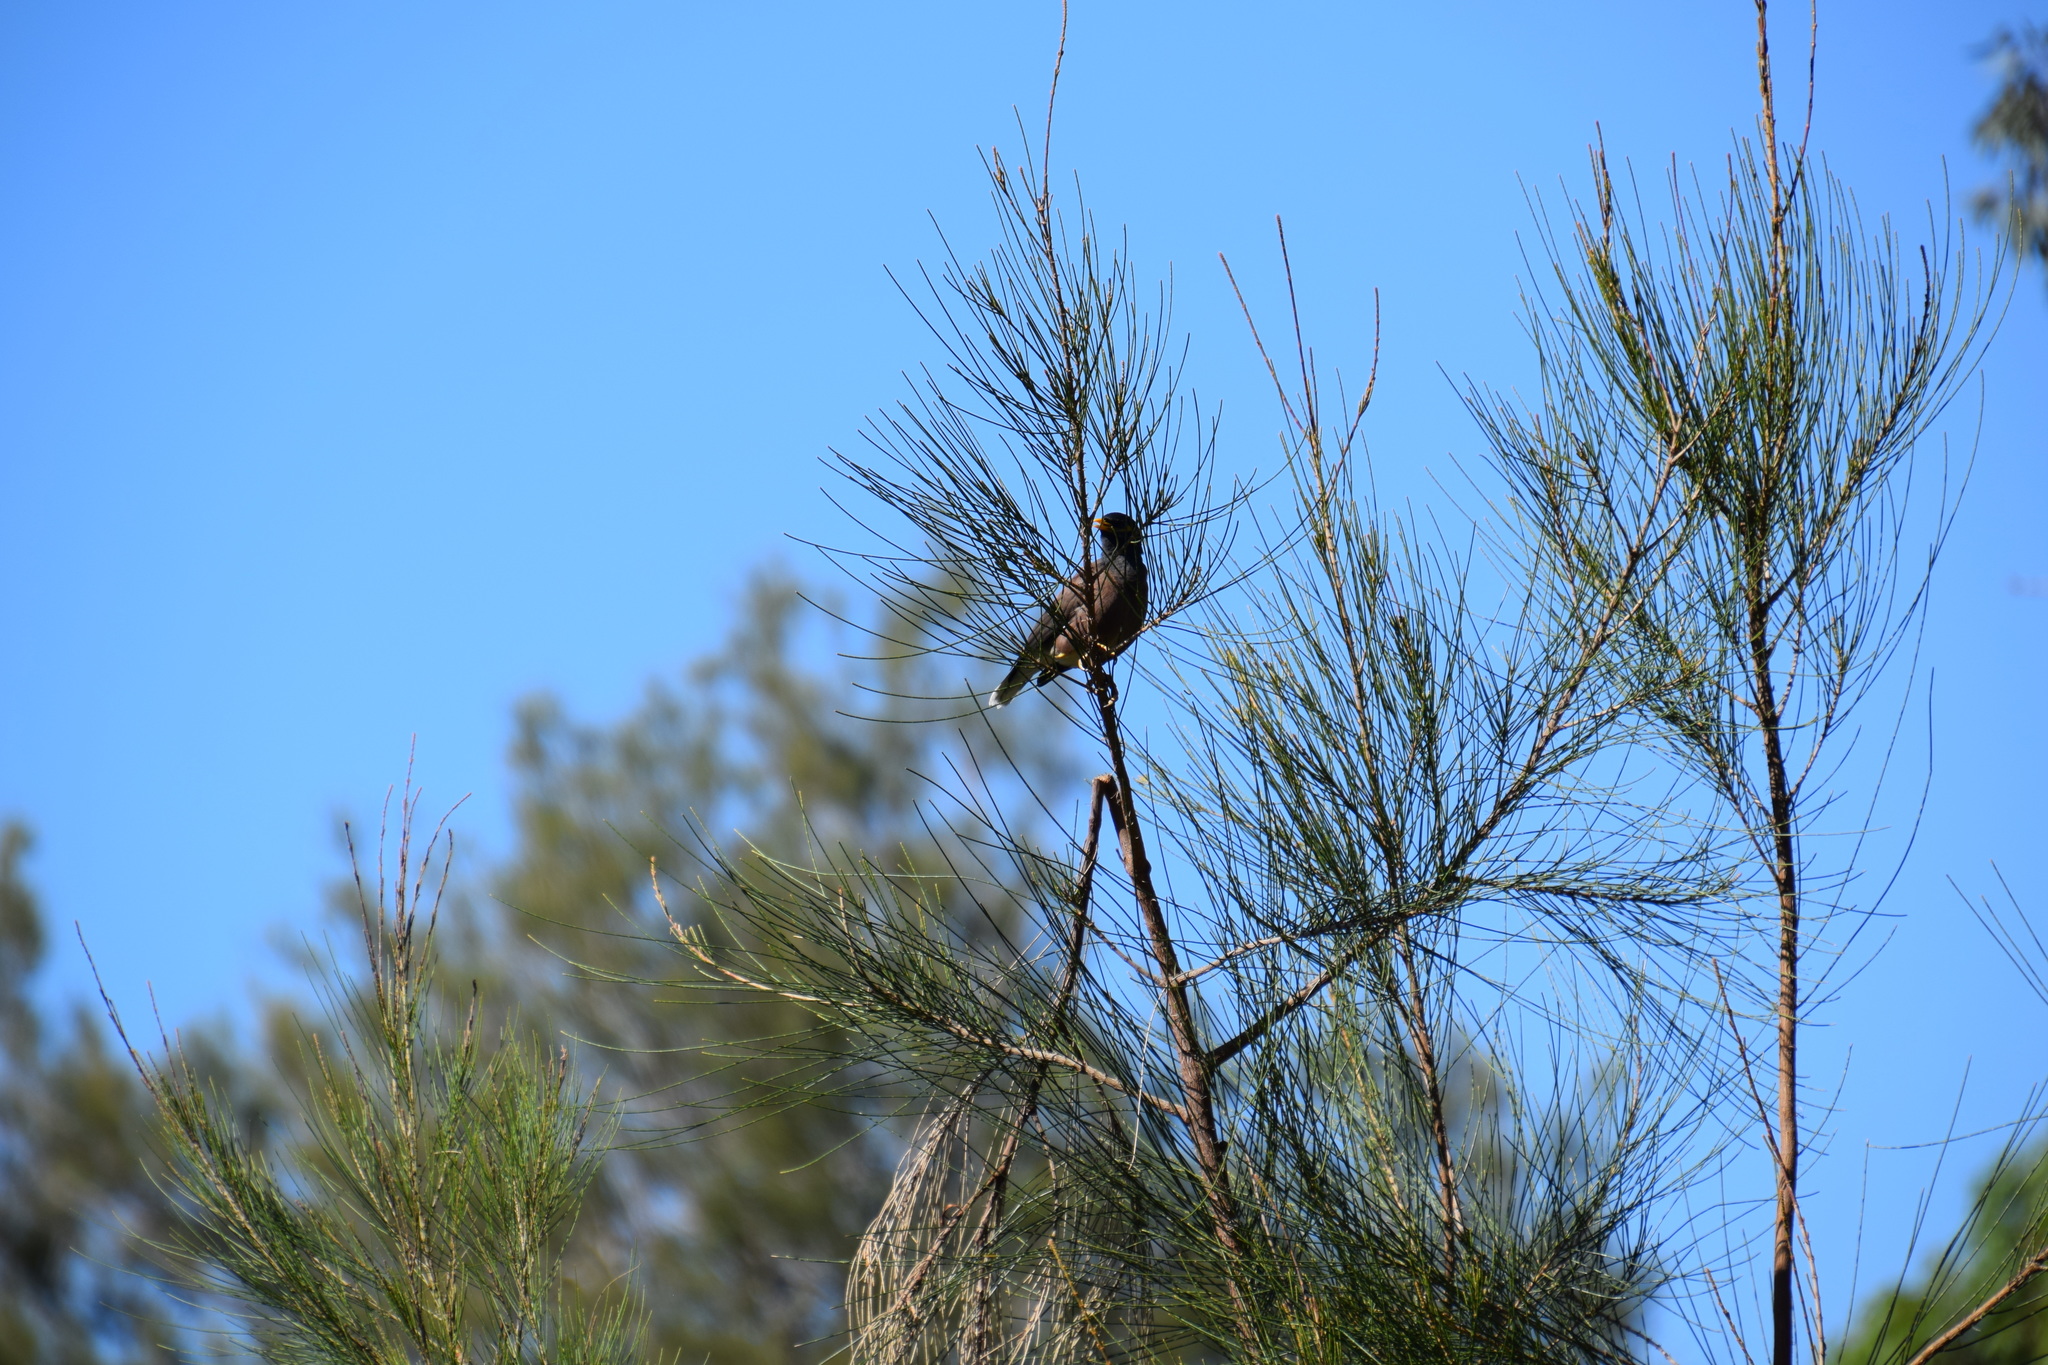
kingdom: Animalia
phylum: Chordata
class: Aves
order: Passeriformes
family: Sturnidae
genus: Acridotheres
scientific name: Acridotheres tristis
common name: Common myna
